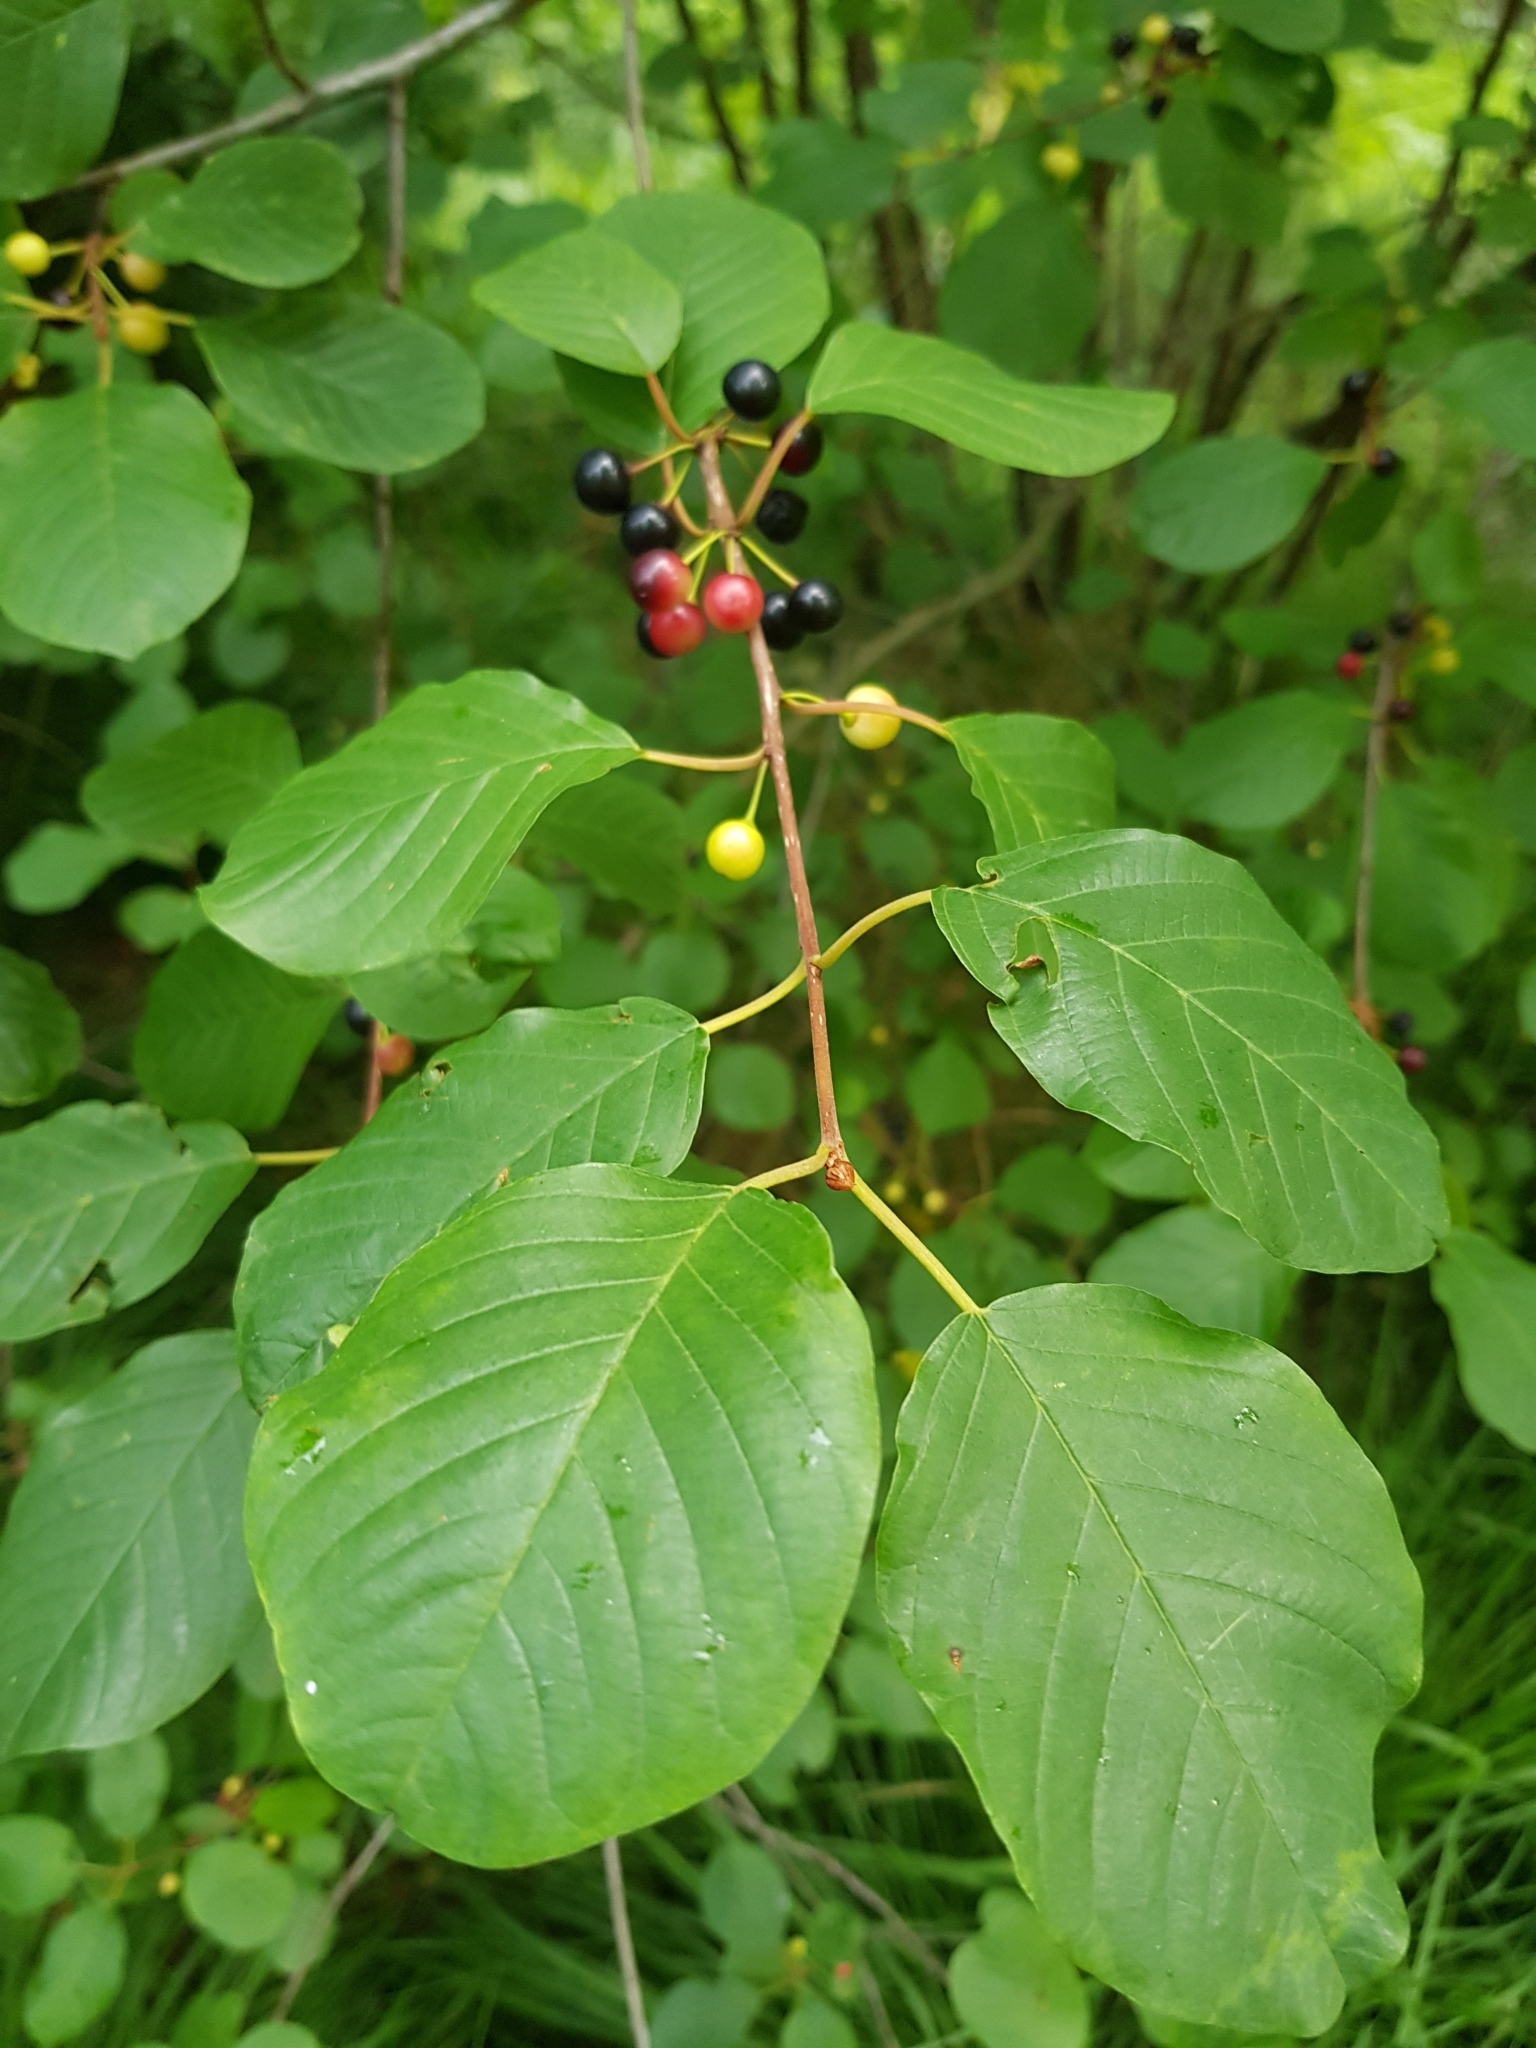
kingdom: Plantae
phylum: Tracheophyta
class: Magnoliopsida
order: Rosales
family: Rhamnaceae
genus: Frangula
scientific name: Frangula alnus
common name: Alder buckthorn
